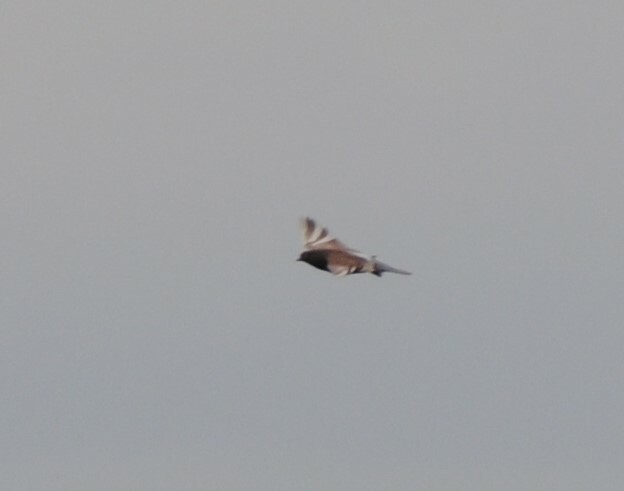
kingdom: Animalia
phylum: Chordata
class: Aves
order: Columbiformes
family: Columbidae
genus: Columba
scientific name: Columba livia
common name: Rock pigeon
